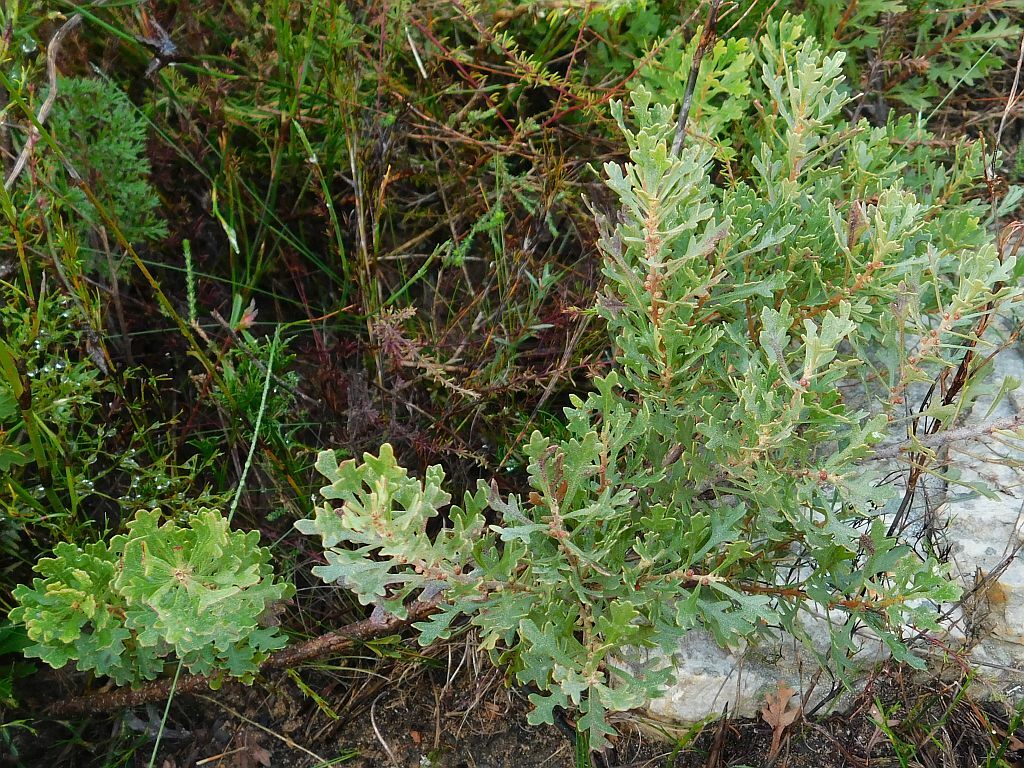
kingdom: Plantae
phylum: Tracheophyta
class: Magnoliopsida
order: Fagales
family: Myricaceae
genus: Morella
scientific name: Morella quercifolia
